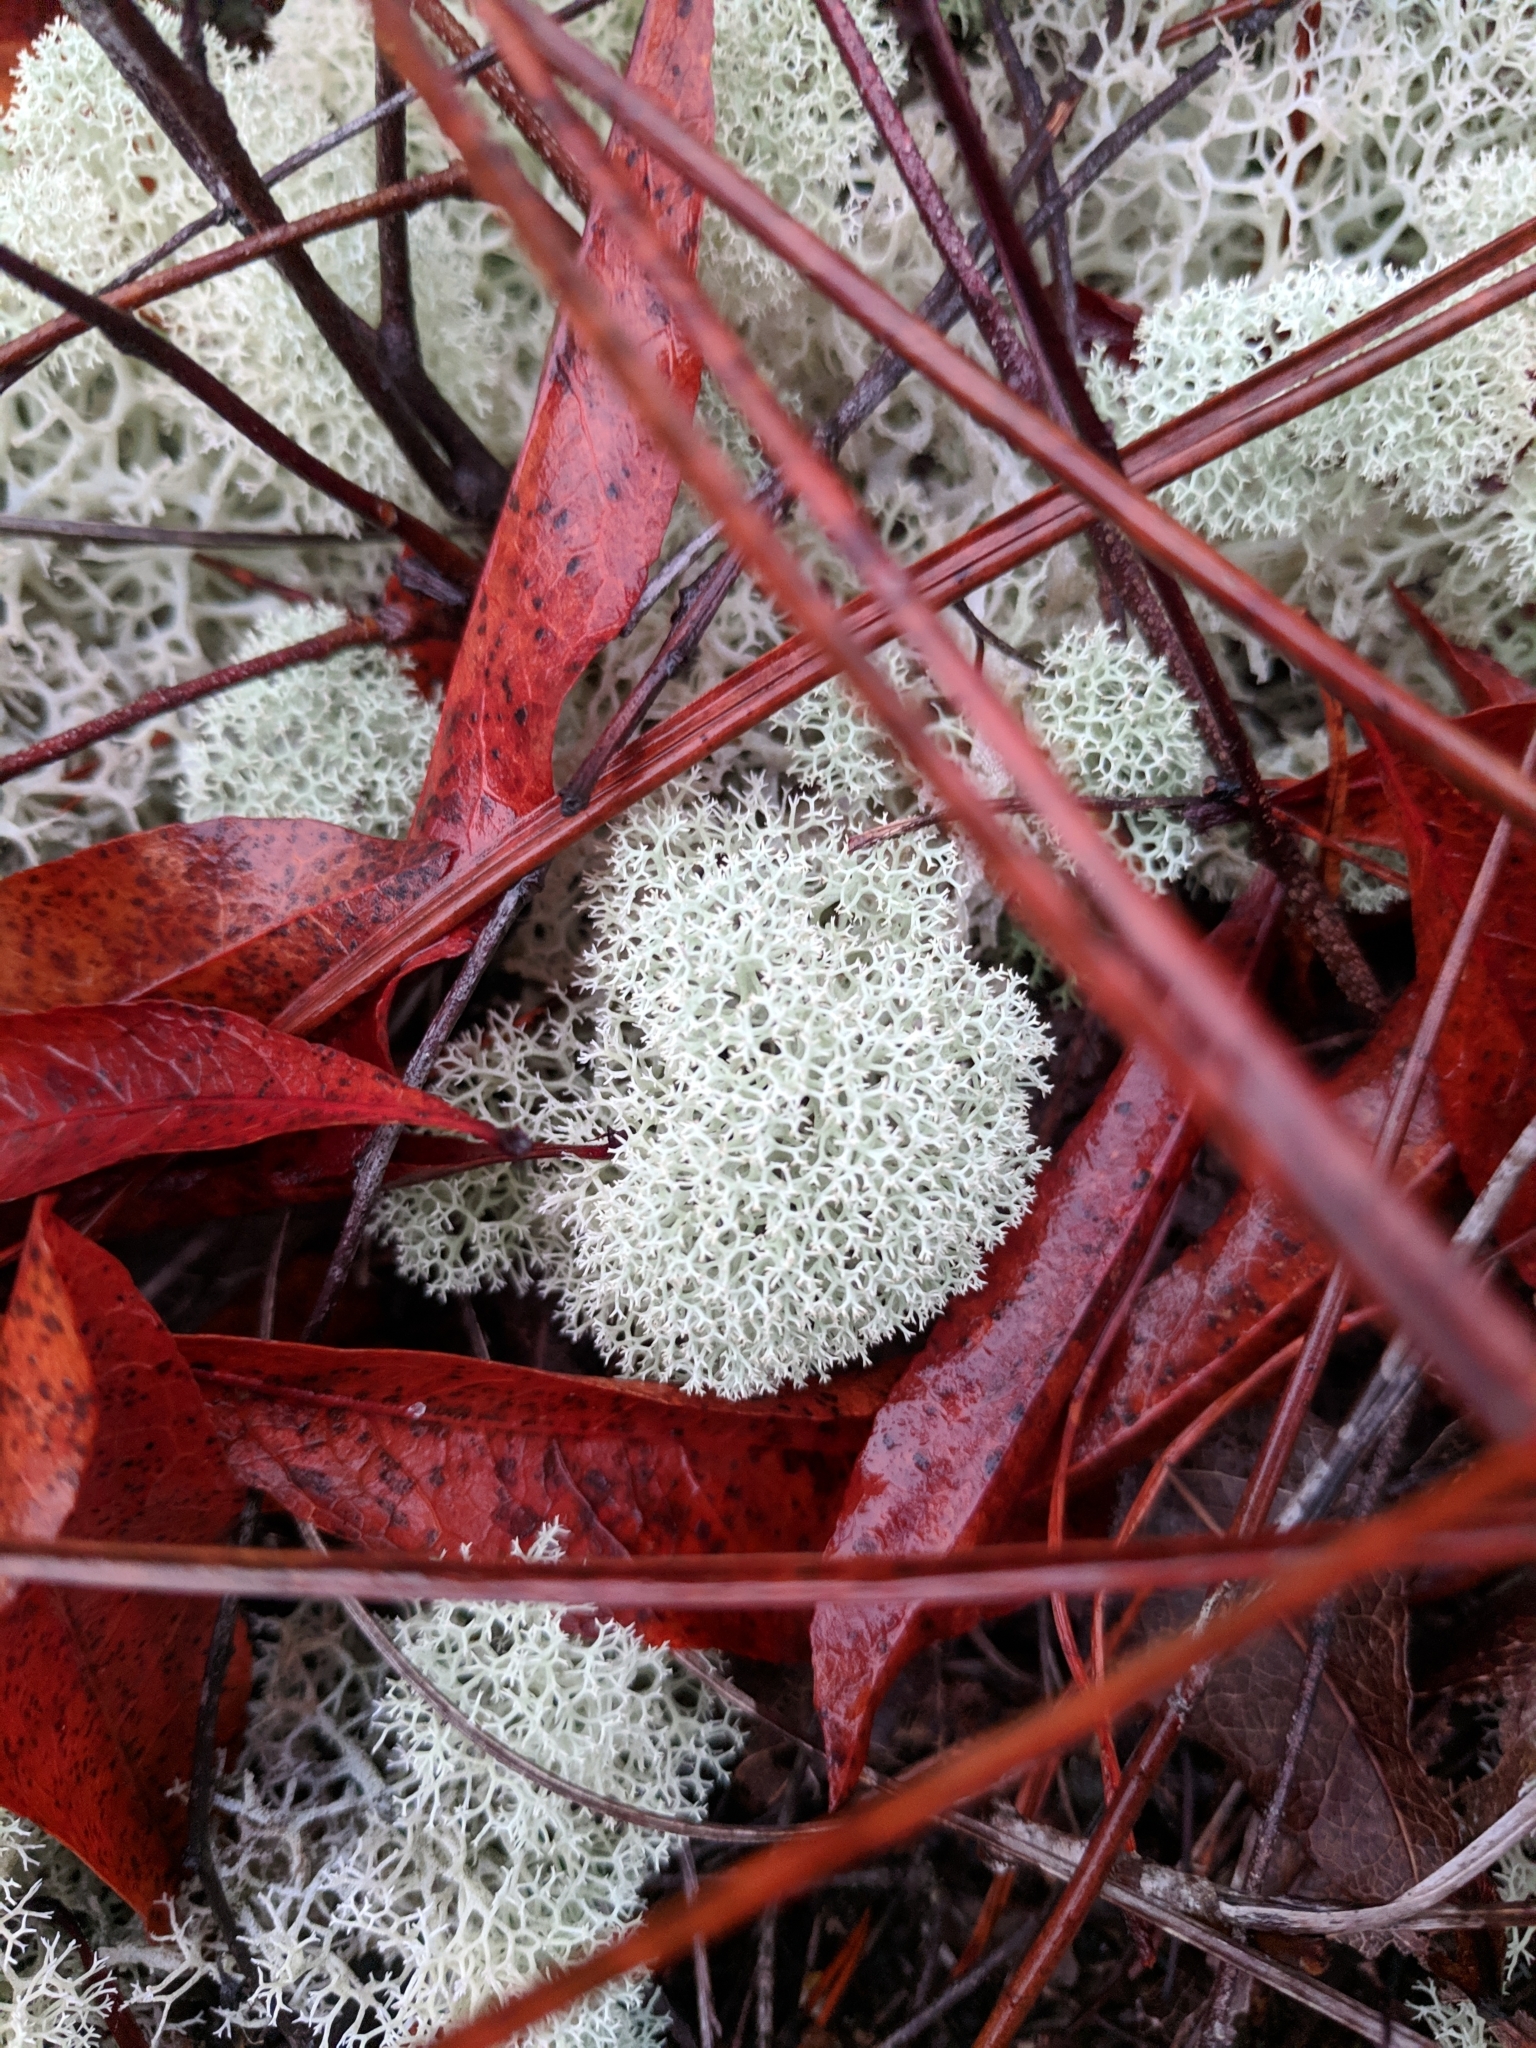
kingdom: Fungi
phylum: Ascomycota
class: Lecanoromycetes
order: Lecanorales
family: Cladoniaceae
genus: Cladonia
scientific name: Cladonia evansii
